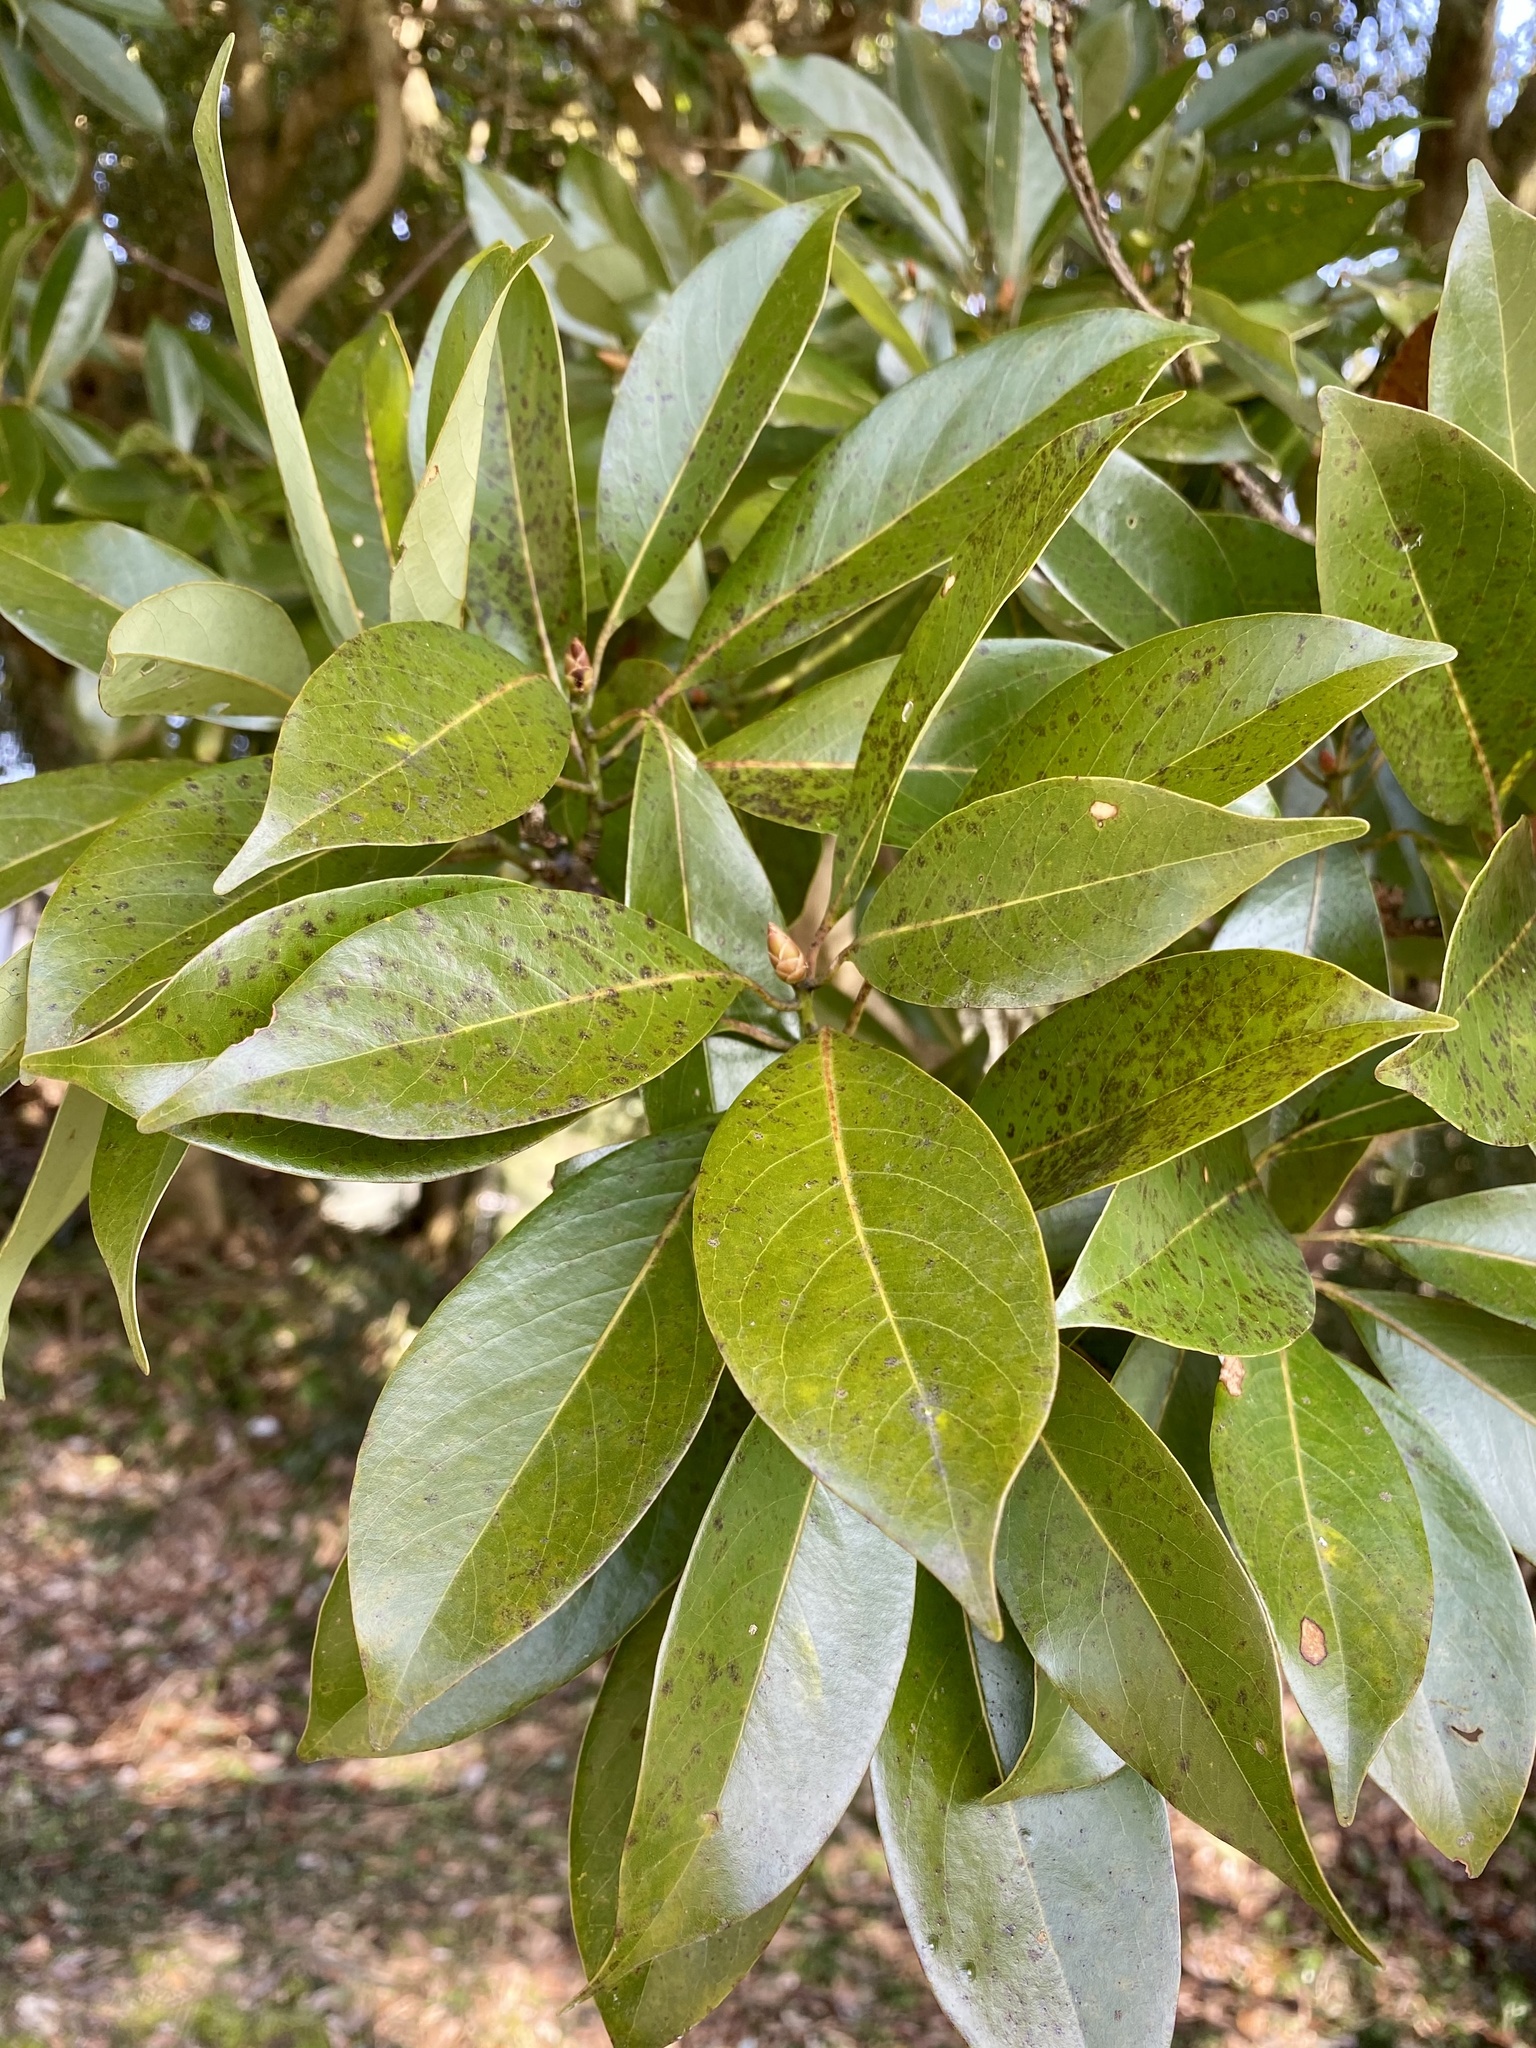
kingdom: Plantae
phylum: Tracheophyta
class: Magnoliopsida
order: Laurales
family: Lauraceae
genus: Machilus
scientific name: Machilus thunbergii
